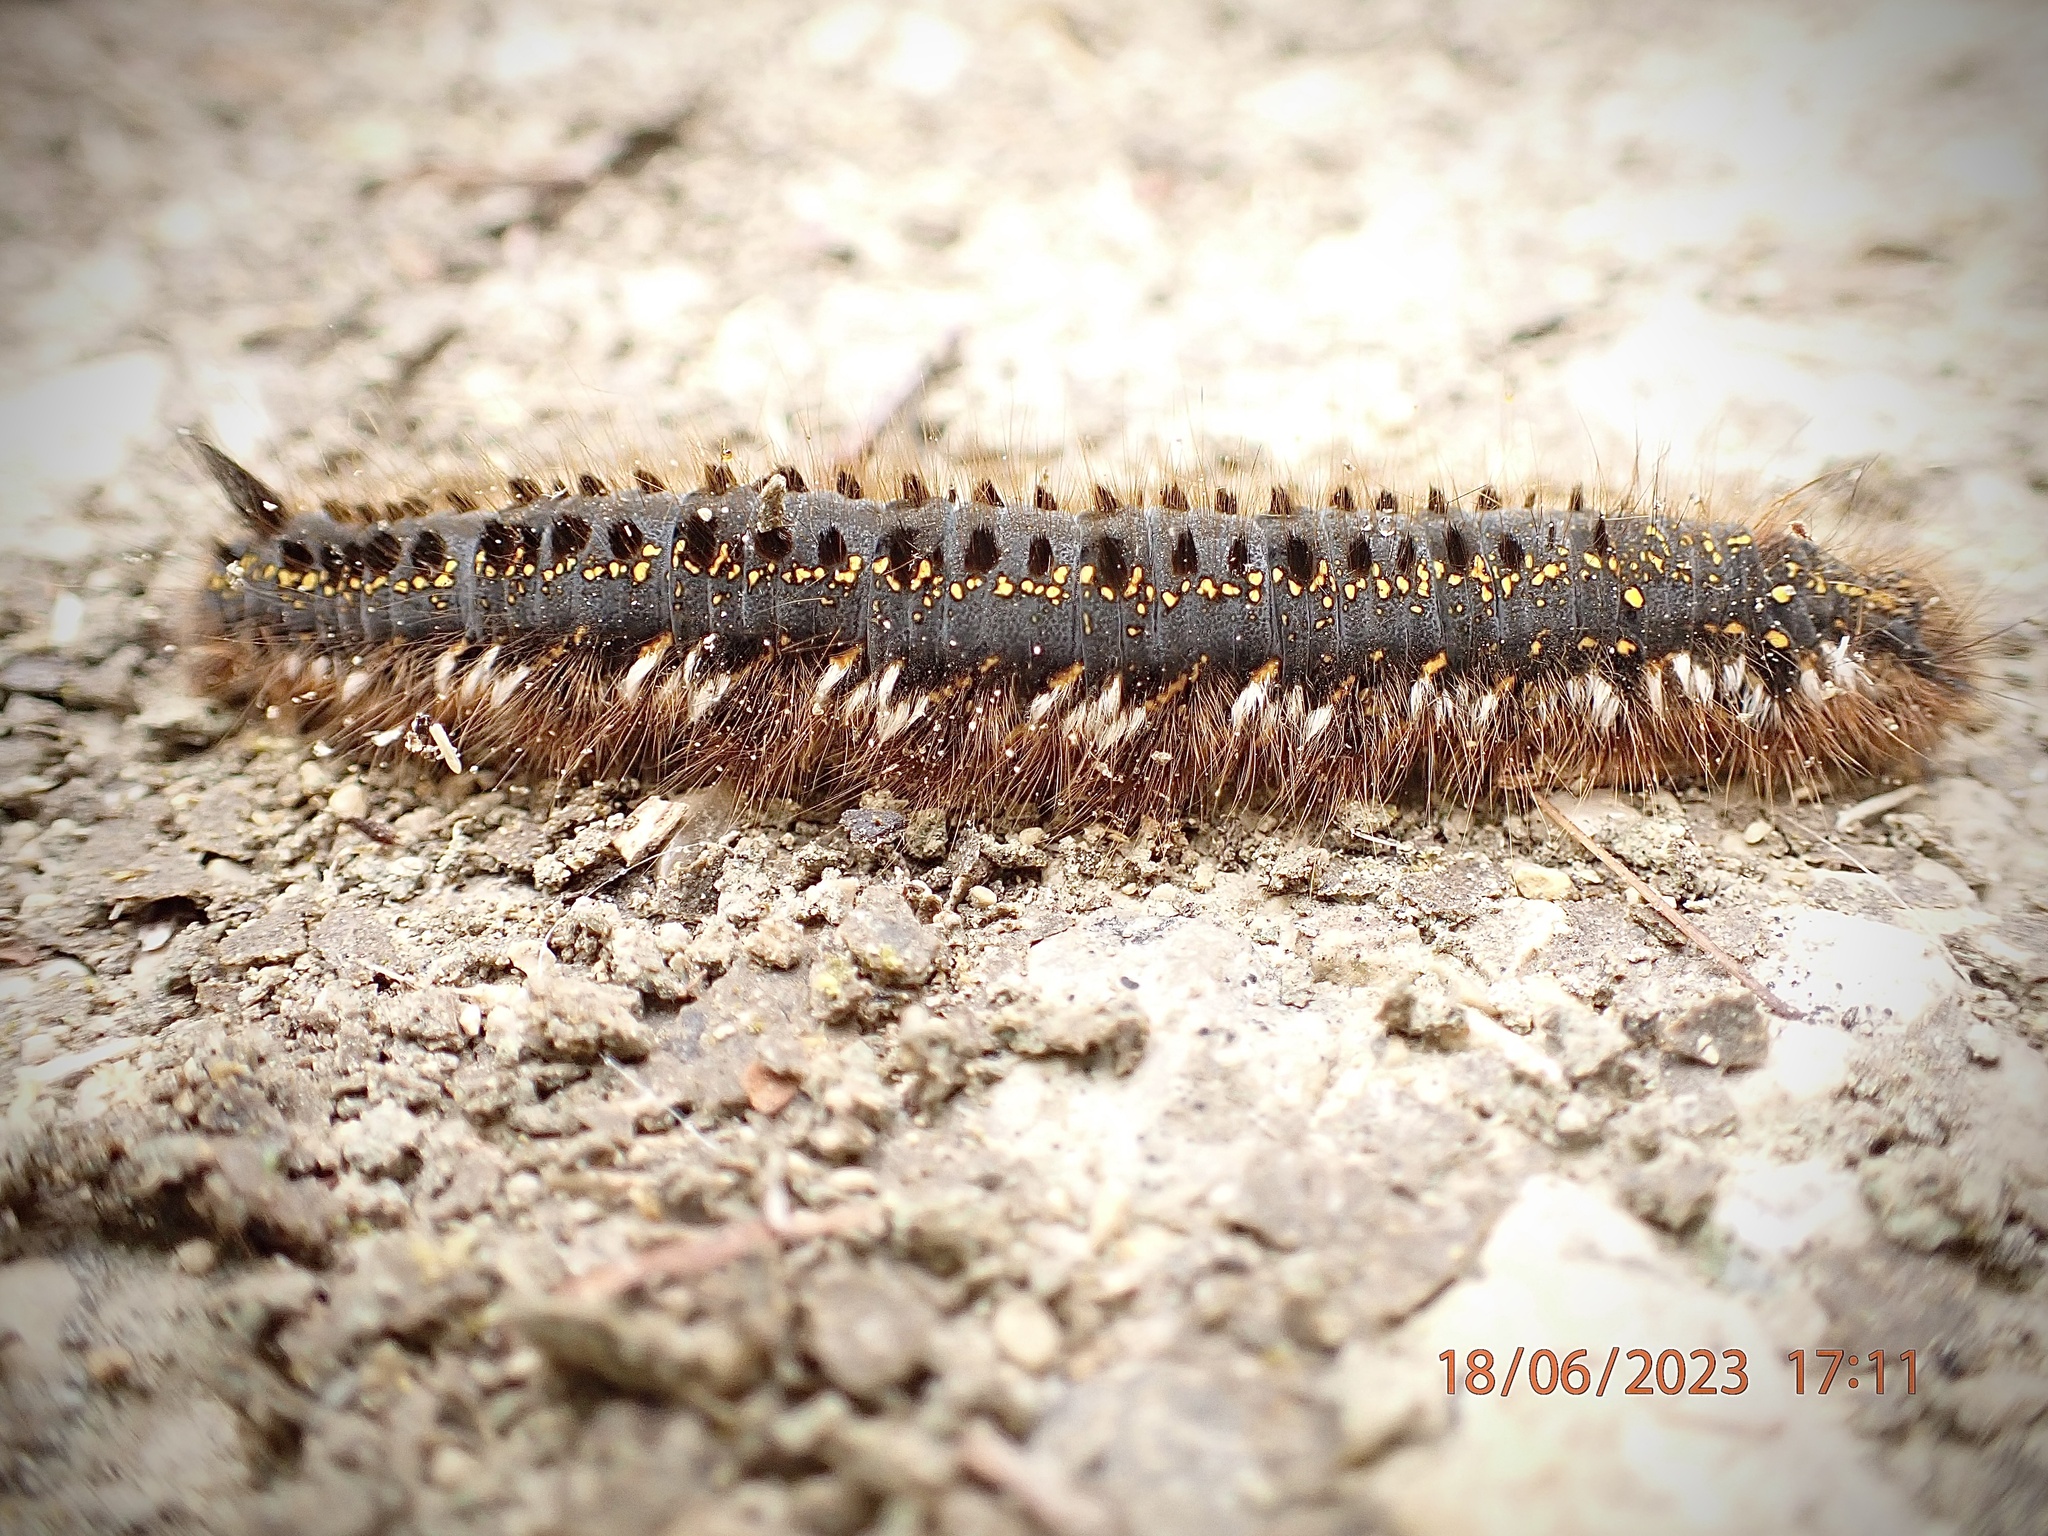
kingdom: Animalia
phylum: Arthropoda
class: Insecta
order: Lepidoptera
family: Lasiocampidae
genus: Euthrix
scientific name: Euthrix potatoria
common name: Drinker
